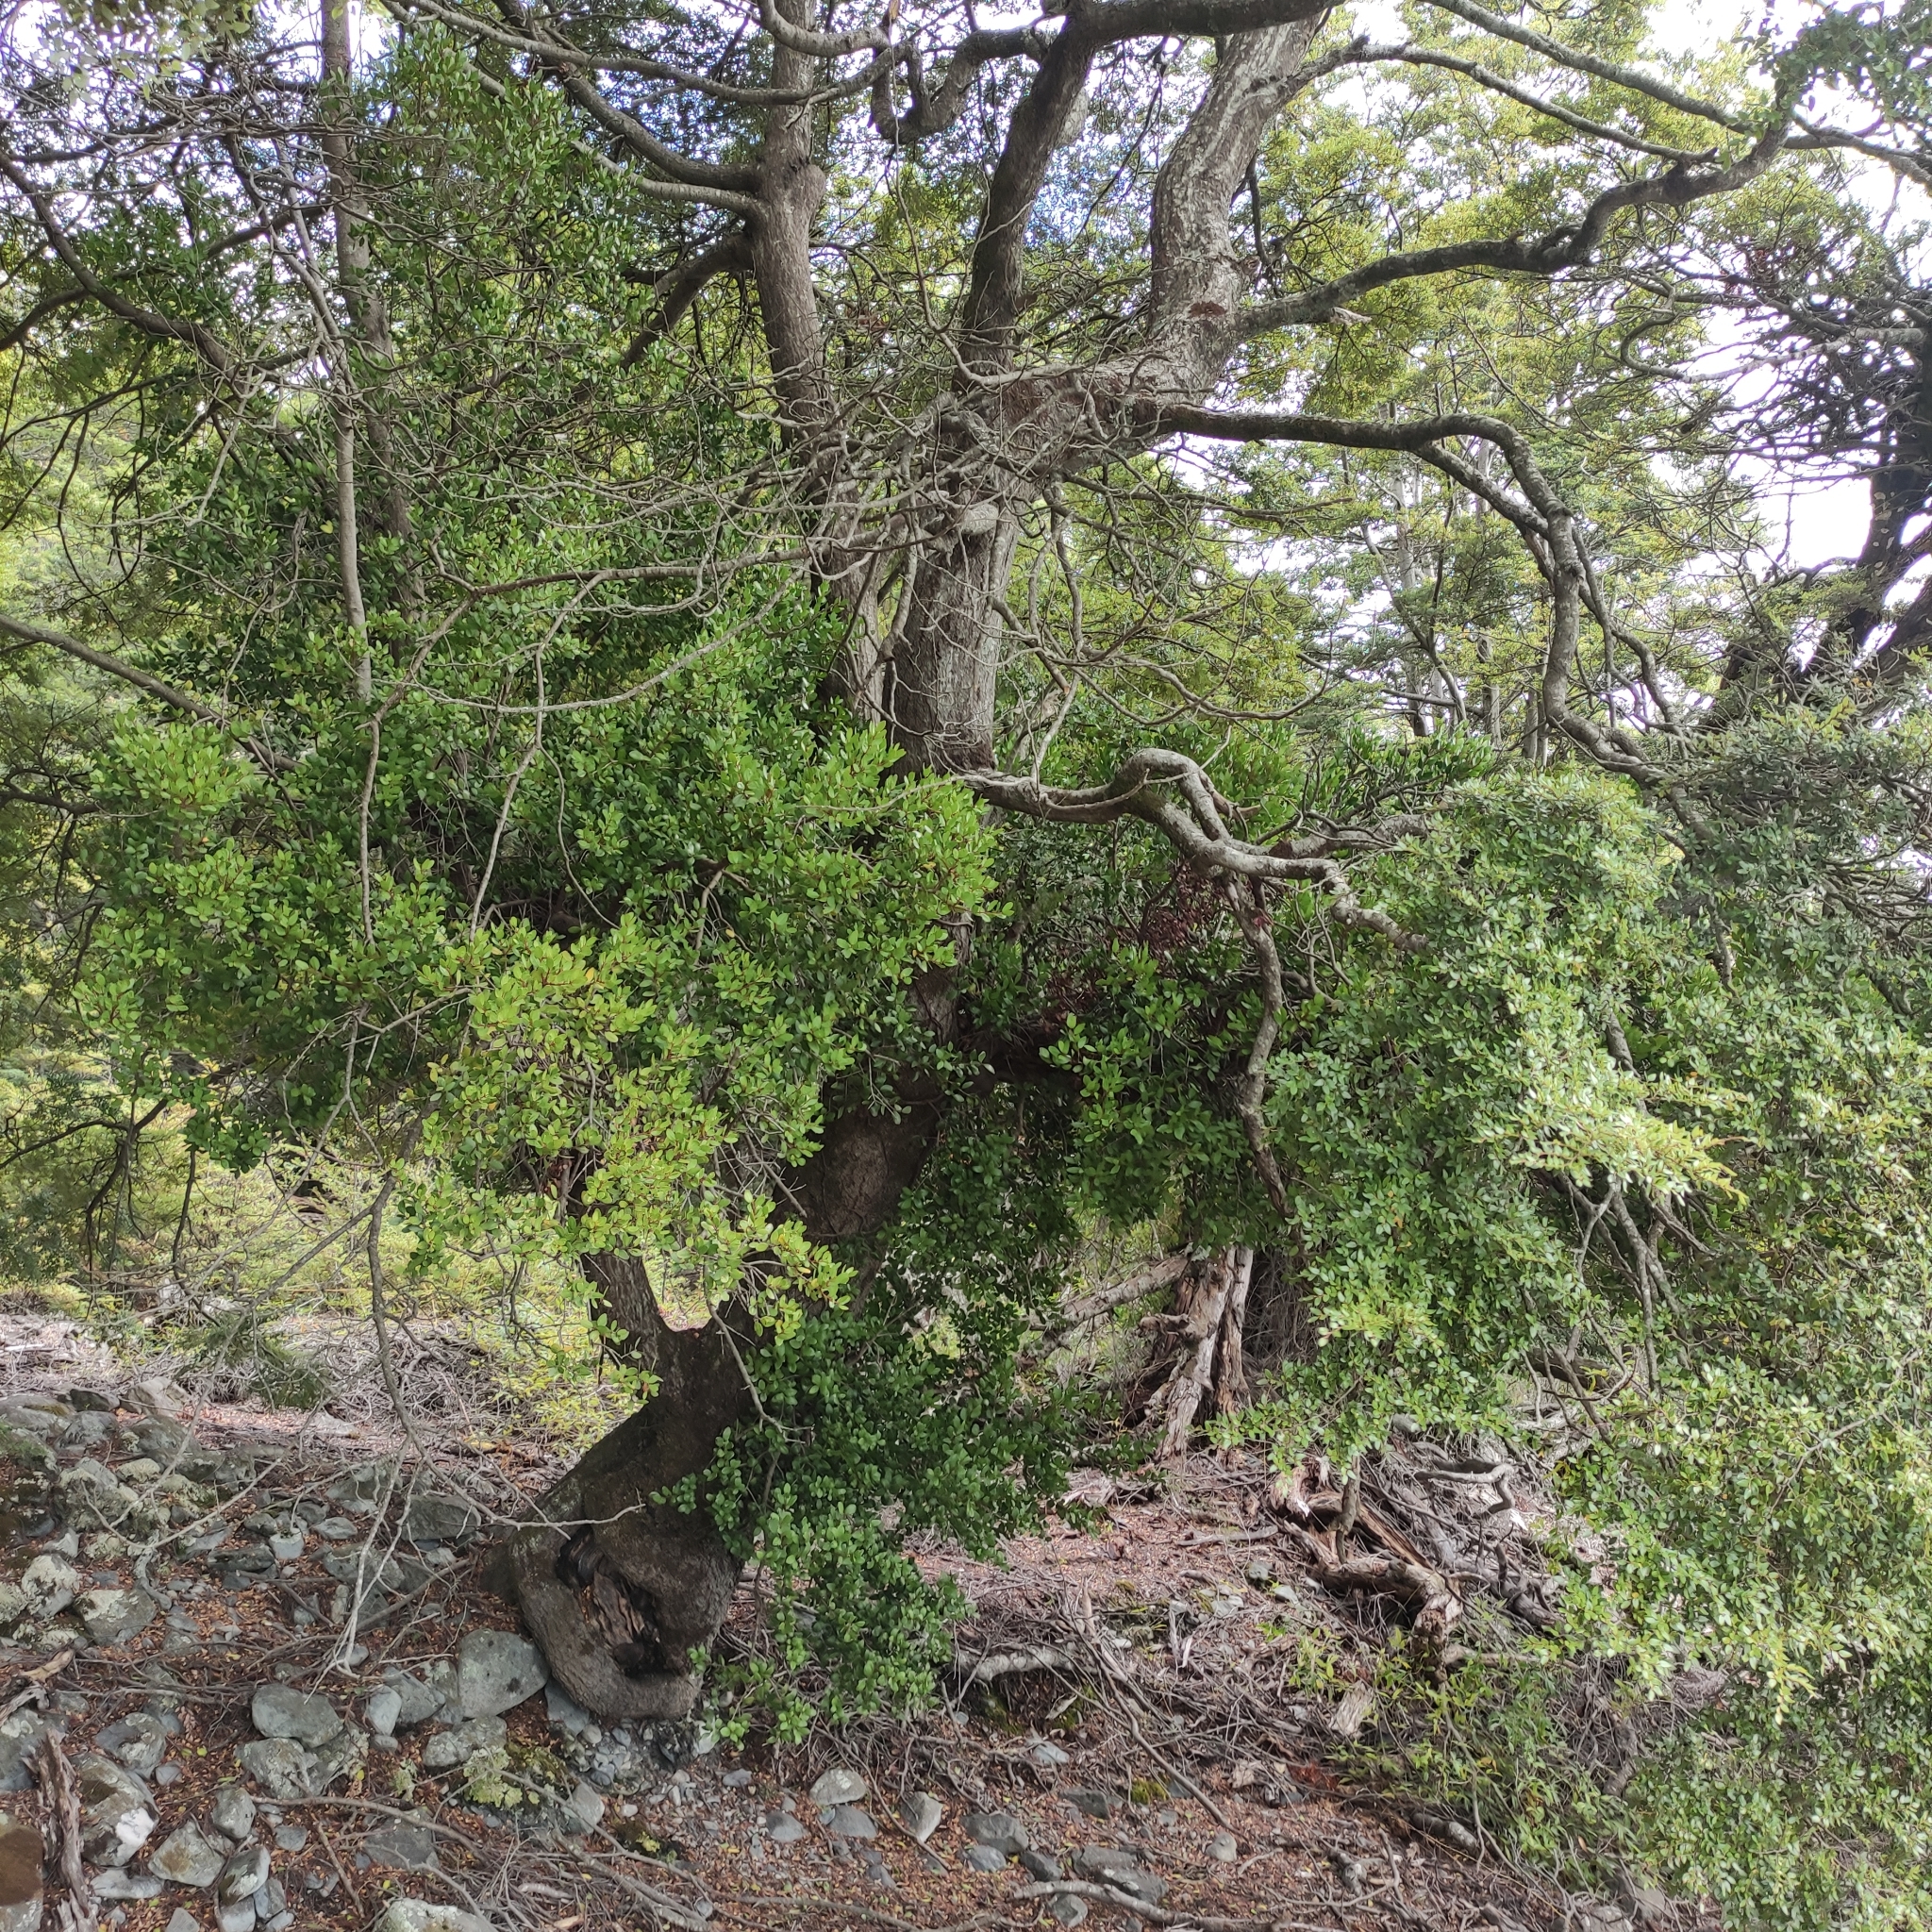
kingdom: Plantae
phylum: Tracheophyta
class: Magnoliopsida
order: Santalales
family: Loranthaceae
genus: Peraxilla
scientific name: Peraxilla tetrapetala
